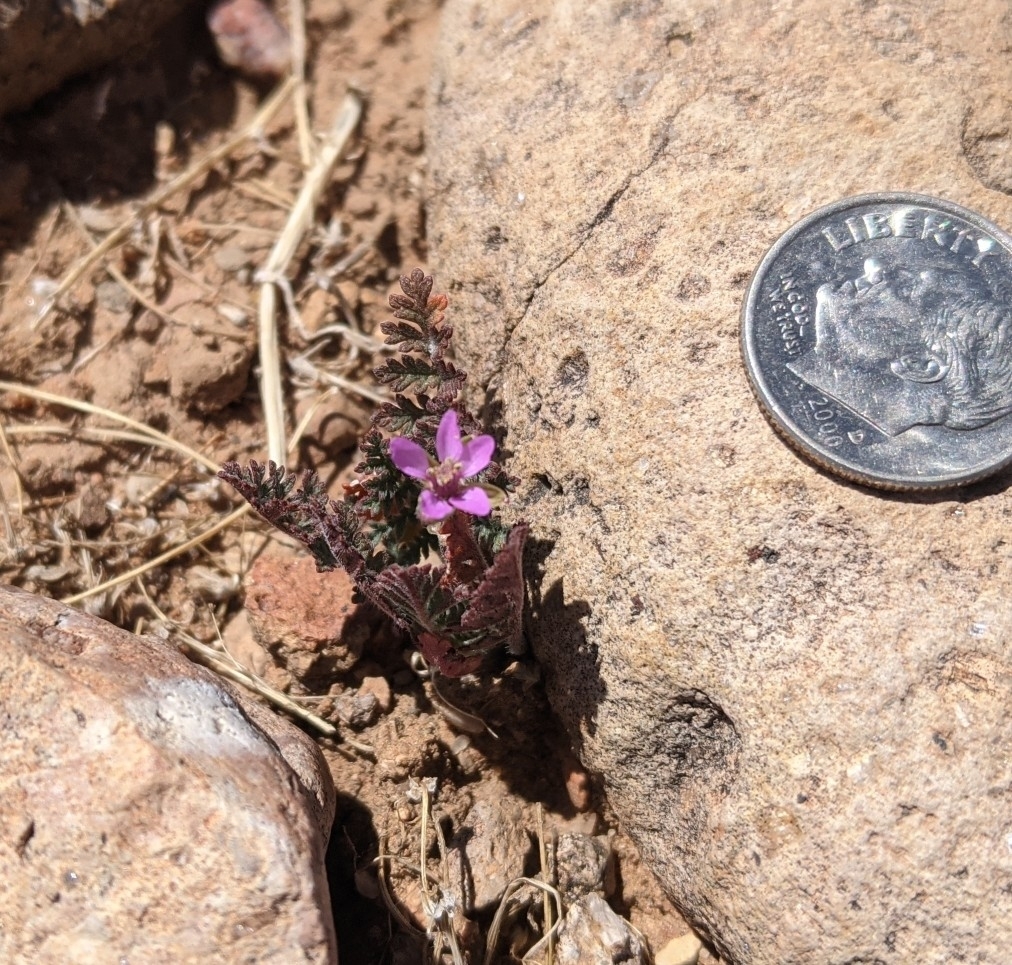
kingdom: Plantae
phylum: Tracheophyta
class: Magnoliopsida
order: Geraniales
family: Geraniaceae
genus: Erodium
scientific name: Erodium cicutarium
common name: Common stork's-bill
